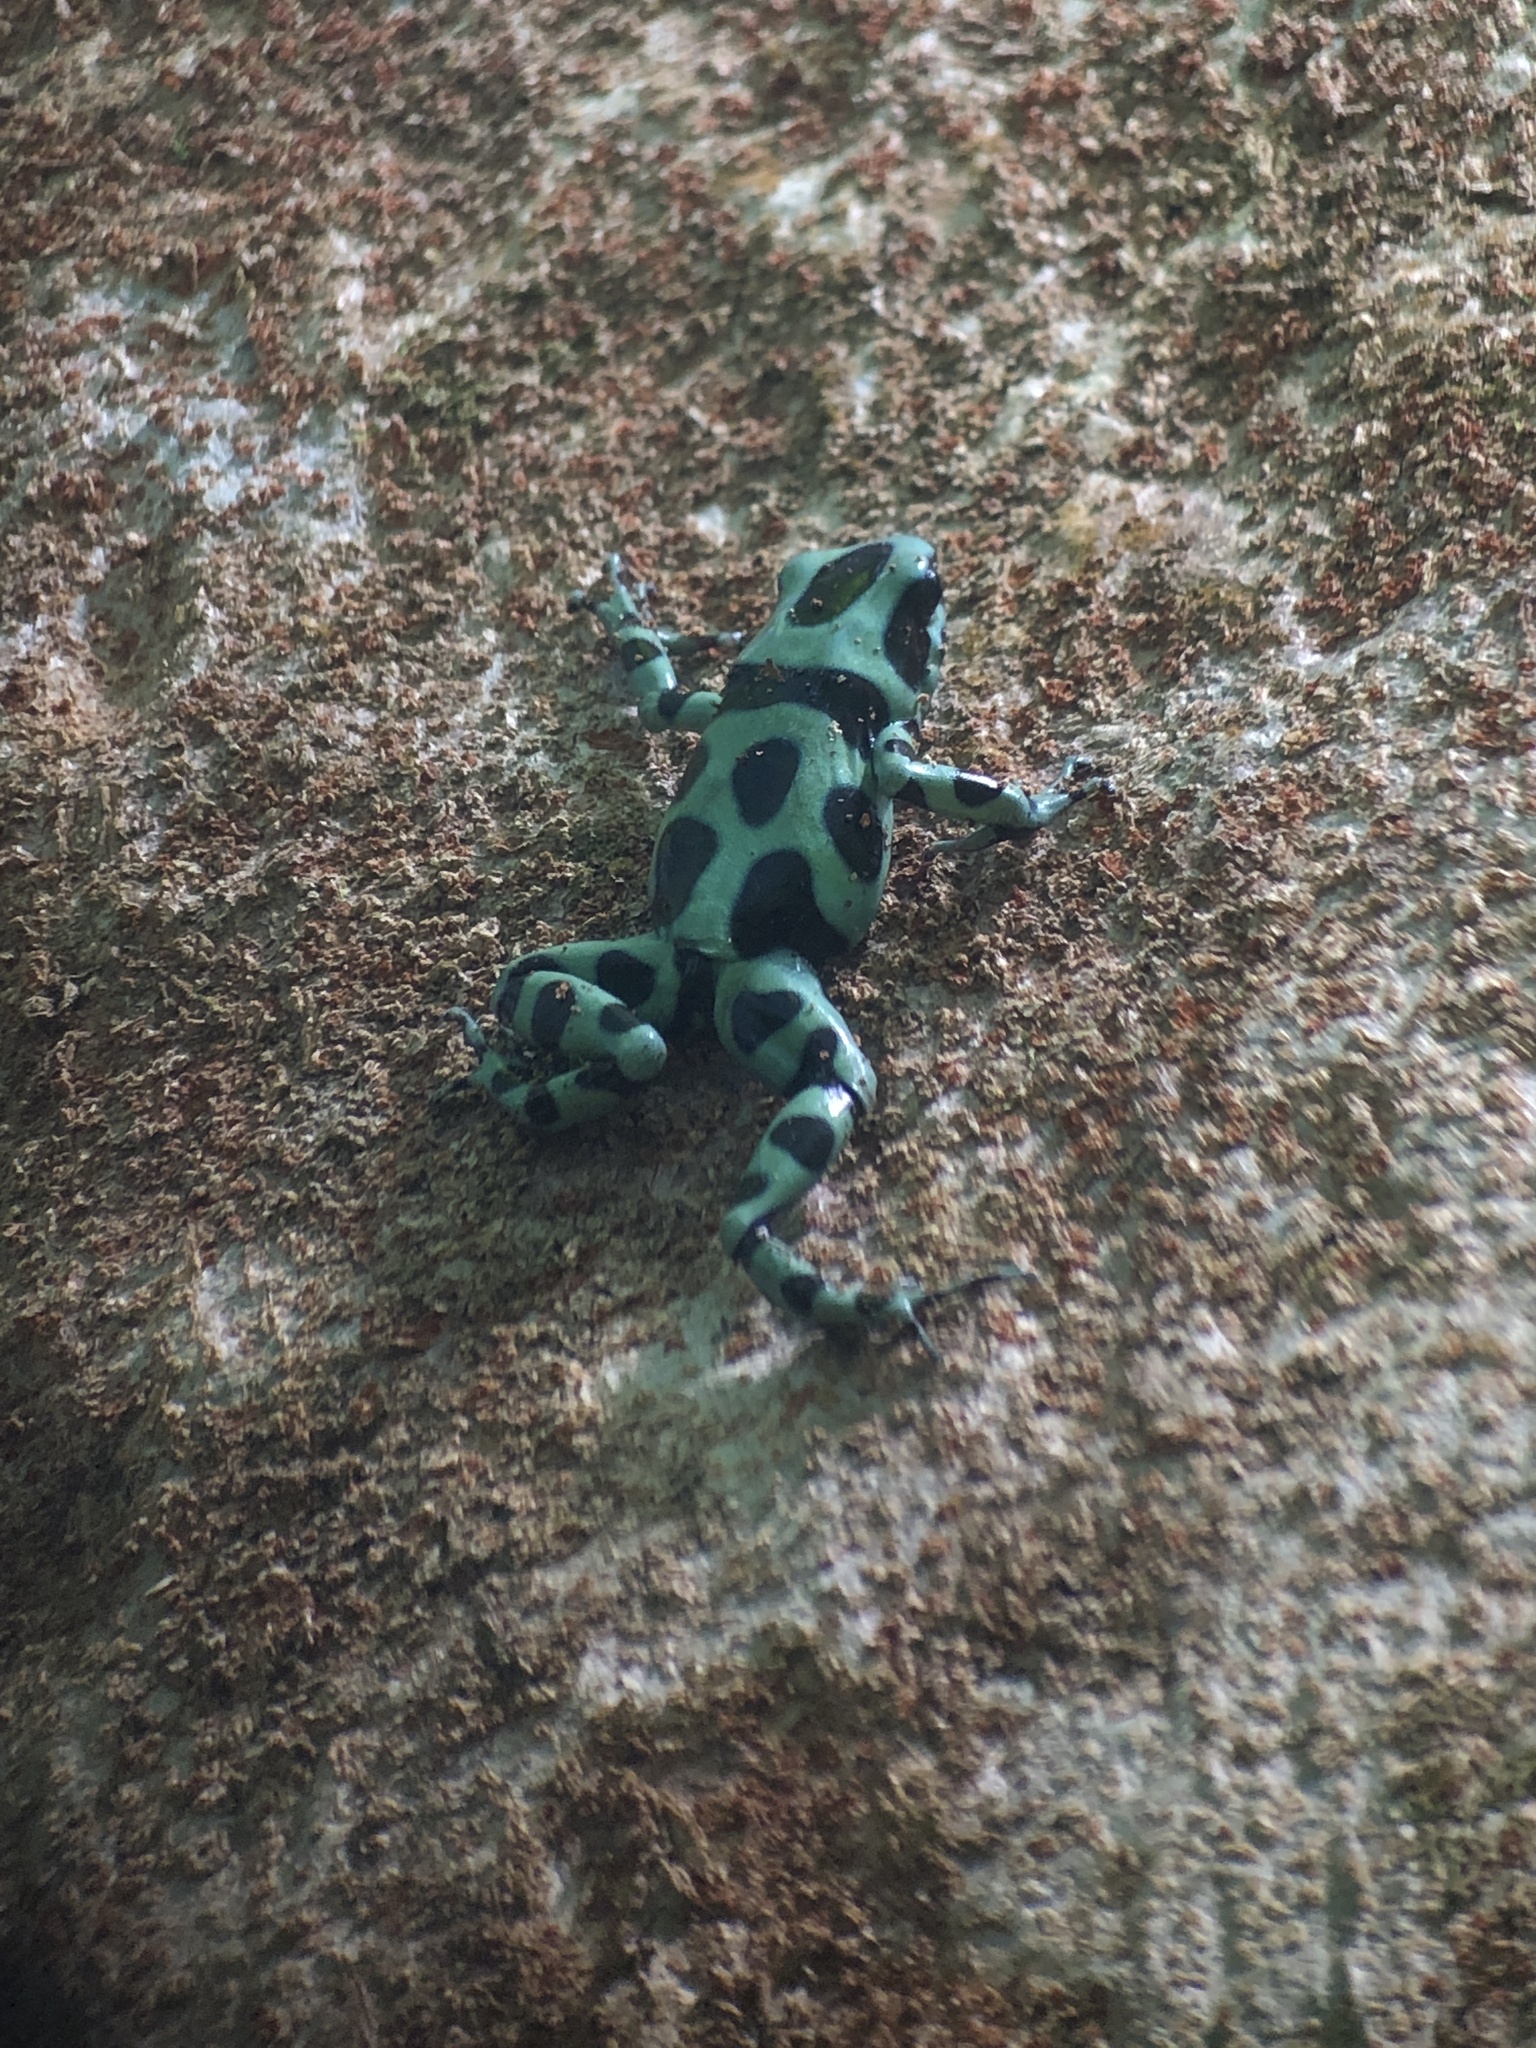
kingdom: Animalia
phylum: Chordata
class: Amphibia
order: Anura
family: Dendrobatidae
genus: Dendrobates
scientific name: Dendrobates auratus
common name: Green and black poison dart frog
